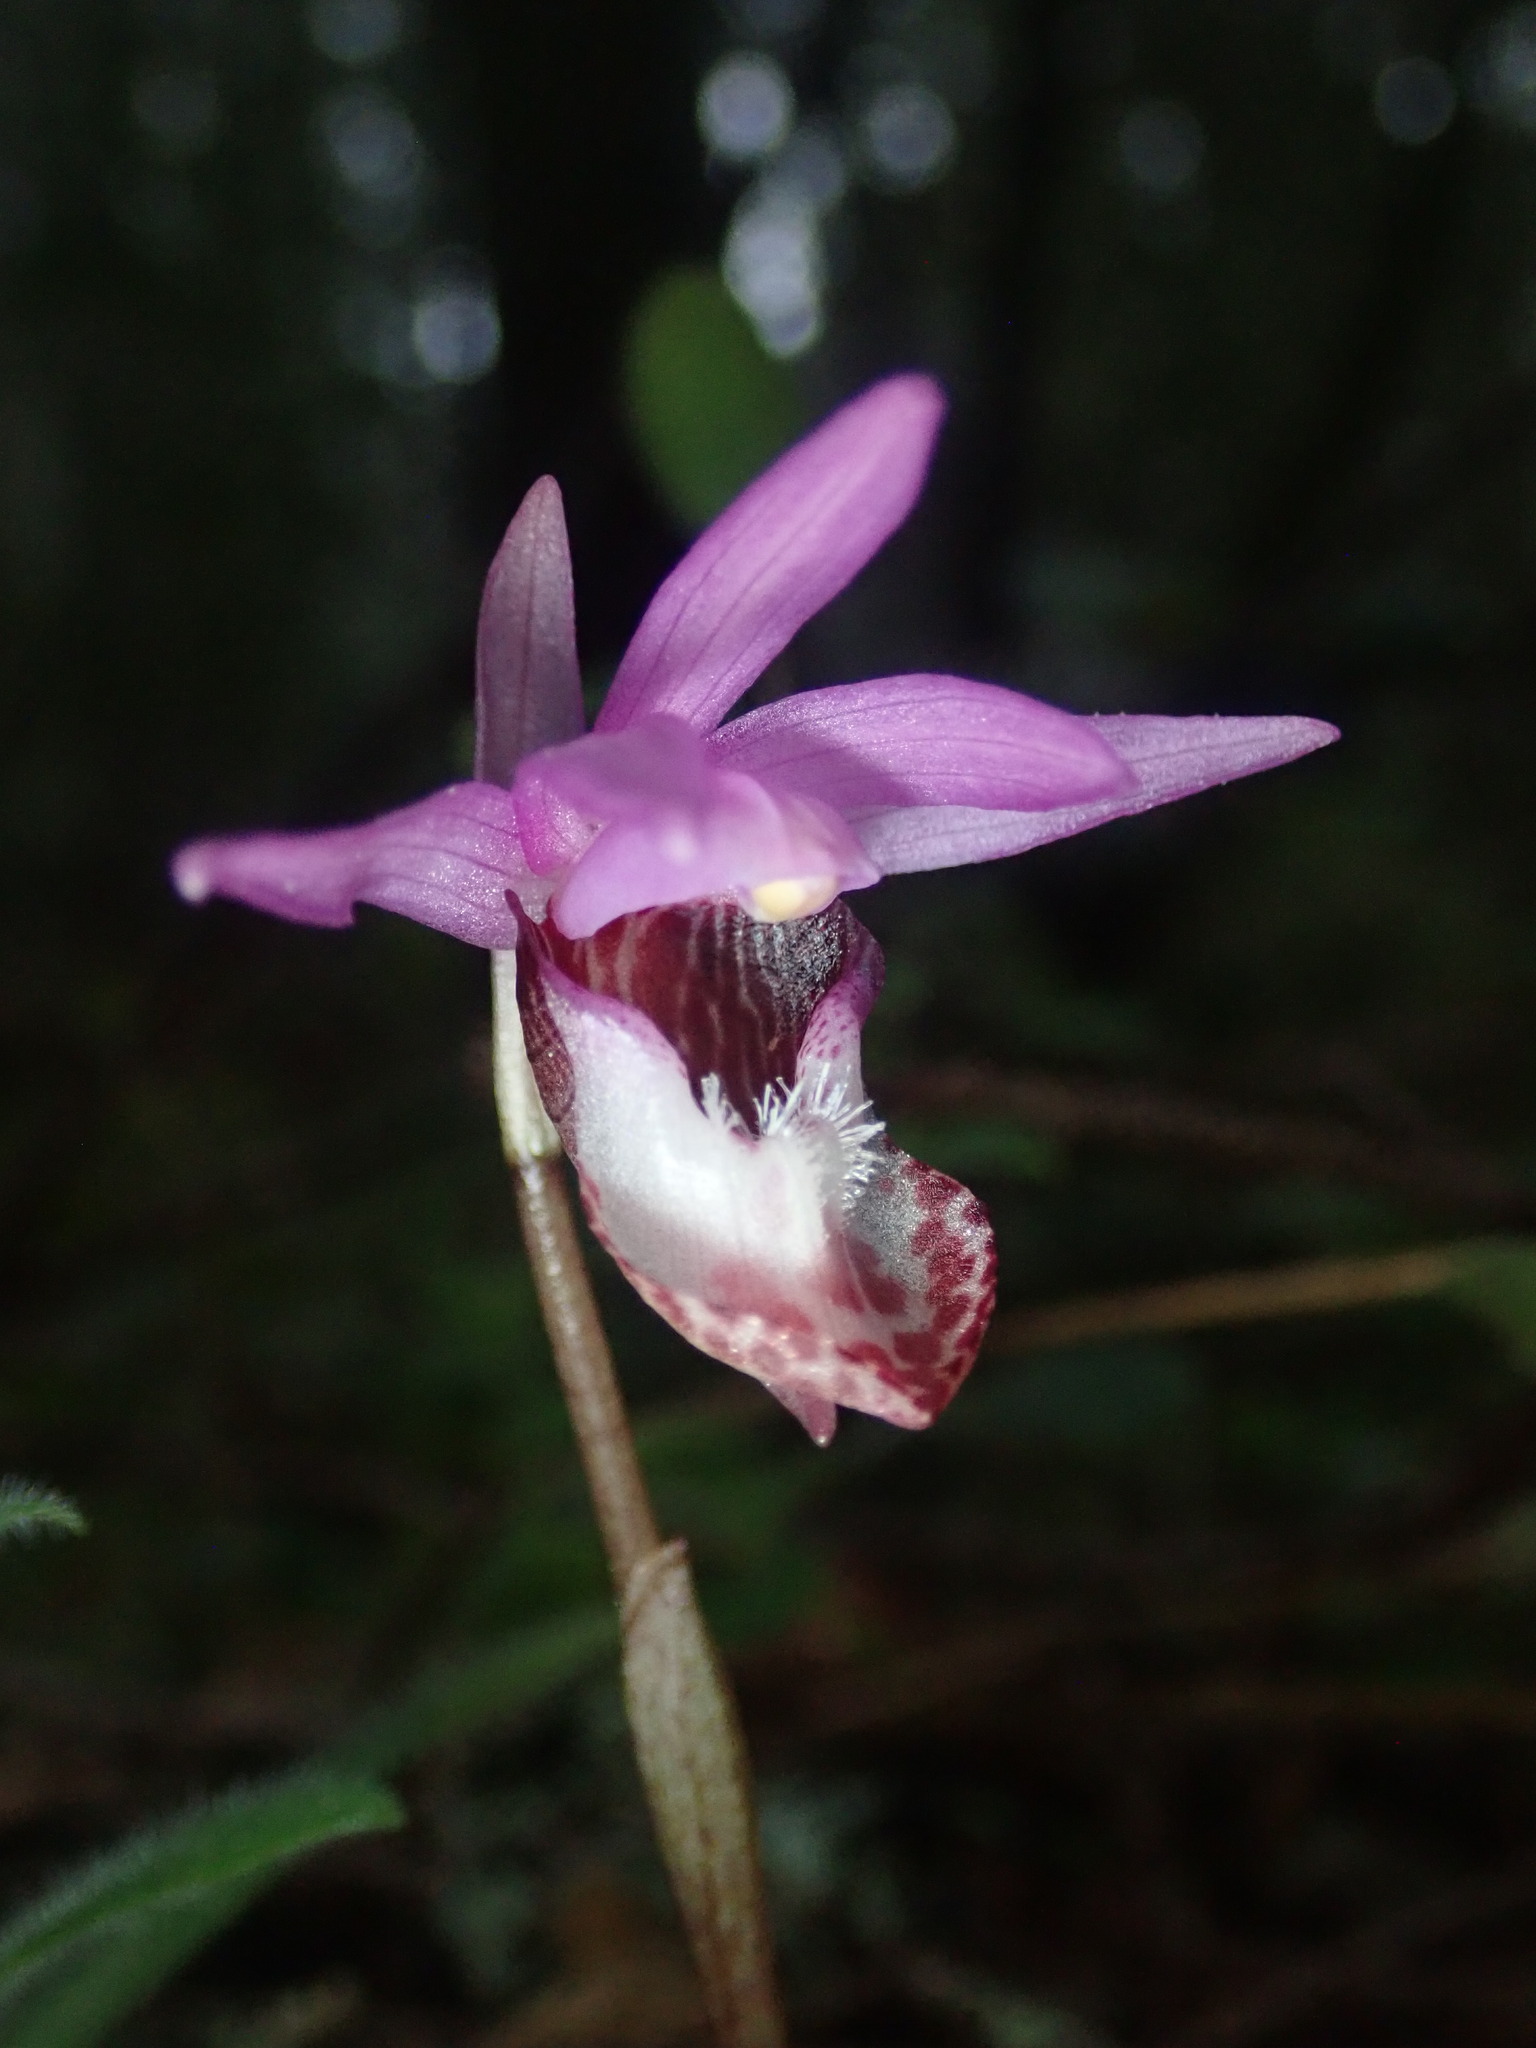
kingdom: Plantae
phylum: Tracheophyta
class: Liliopsida
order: Asparagales
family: Orchidaceae
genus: Calypso
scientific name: Calypso bulbosa
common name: Calypso
